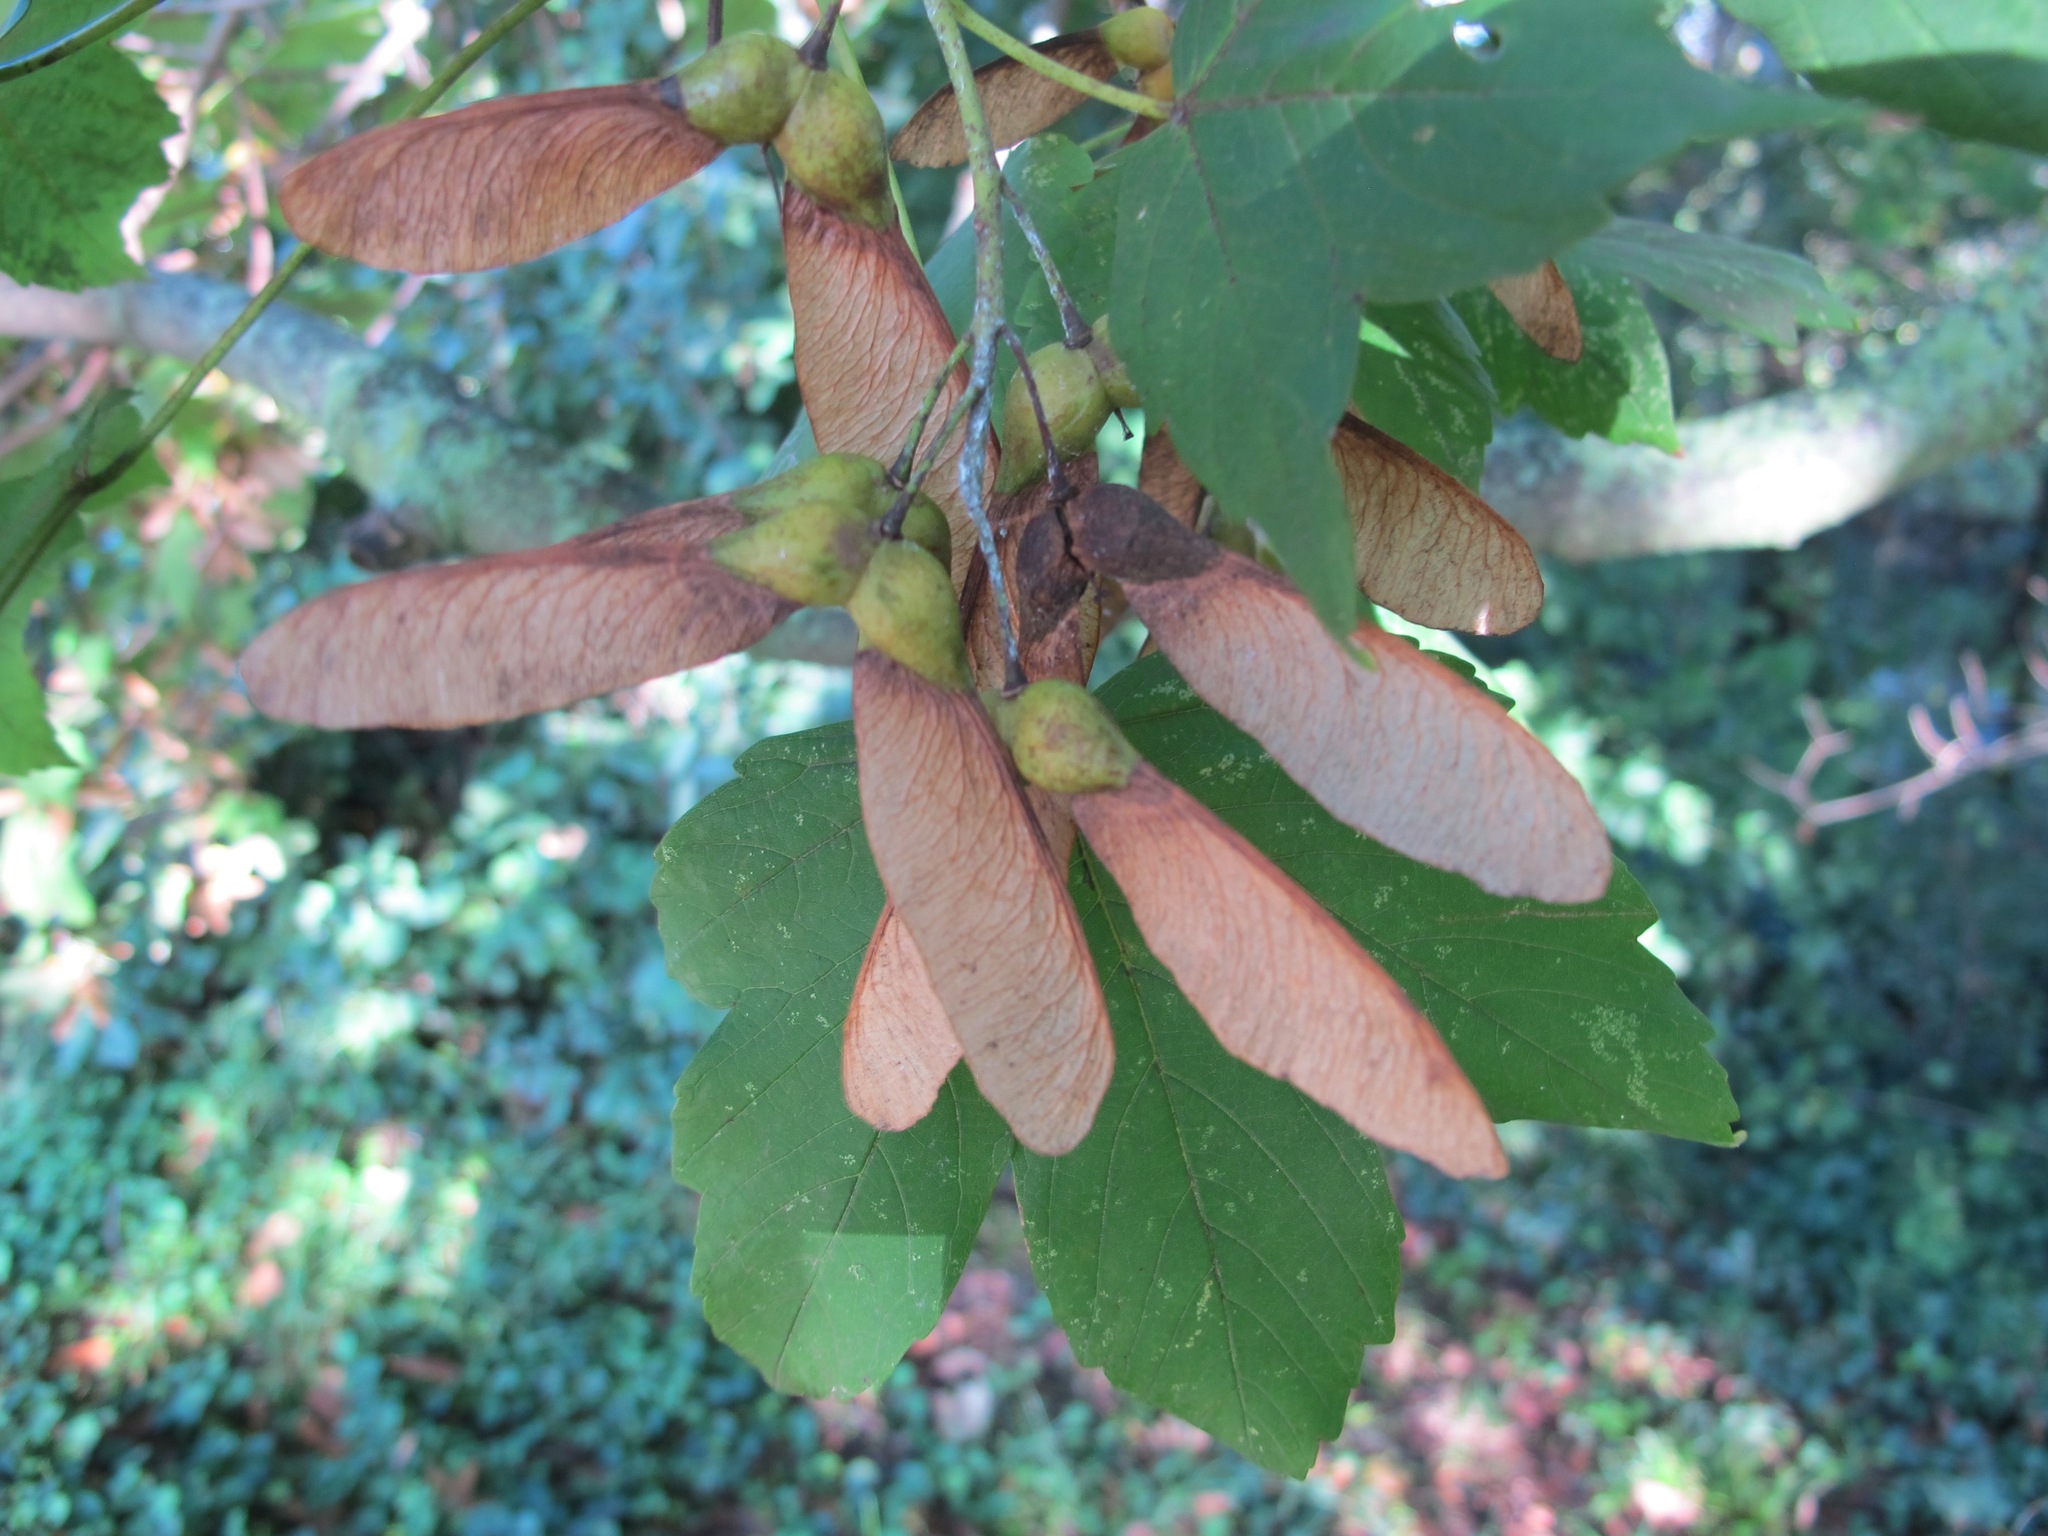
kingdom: Plantae
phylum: Tracheophyta
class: Magnoliopsida
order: Sapindales
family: Sapindaceae
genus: Acer
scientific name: Acer pseudoplatanus
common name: Sycamore
